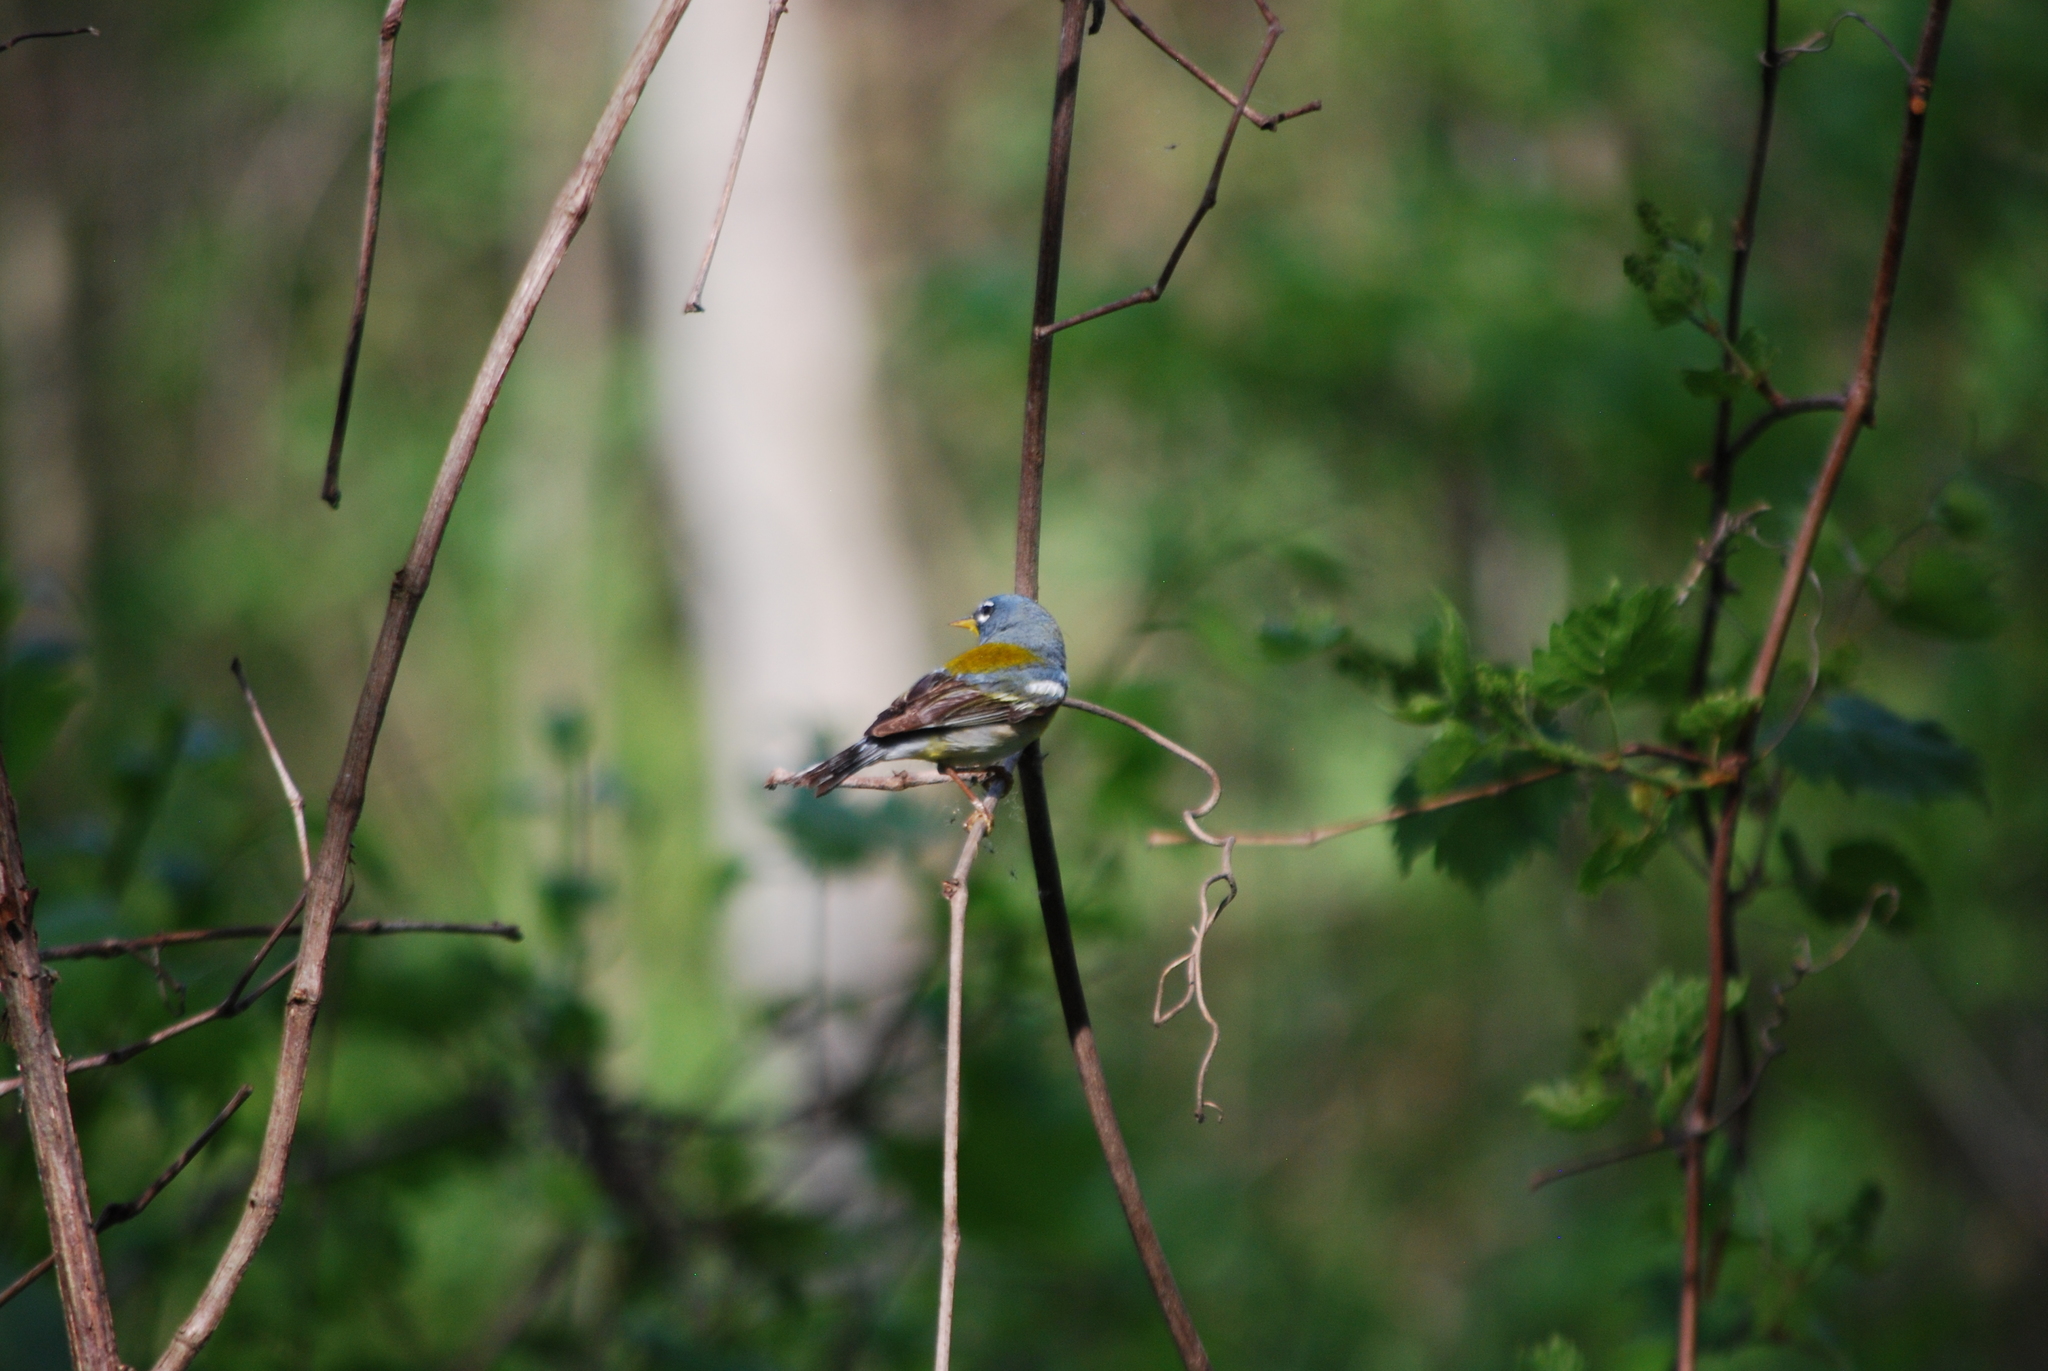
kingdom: Animalia
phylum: Chordata
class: Aves
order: Passeriformes
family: Parulidae
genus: Setophaga
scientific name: Setophaga americana
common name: Northern parula
